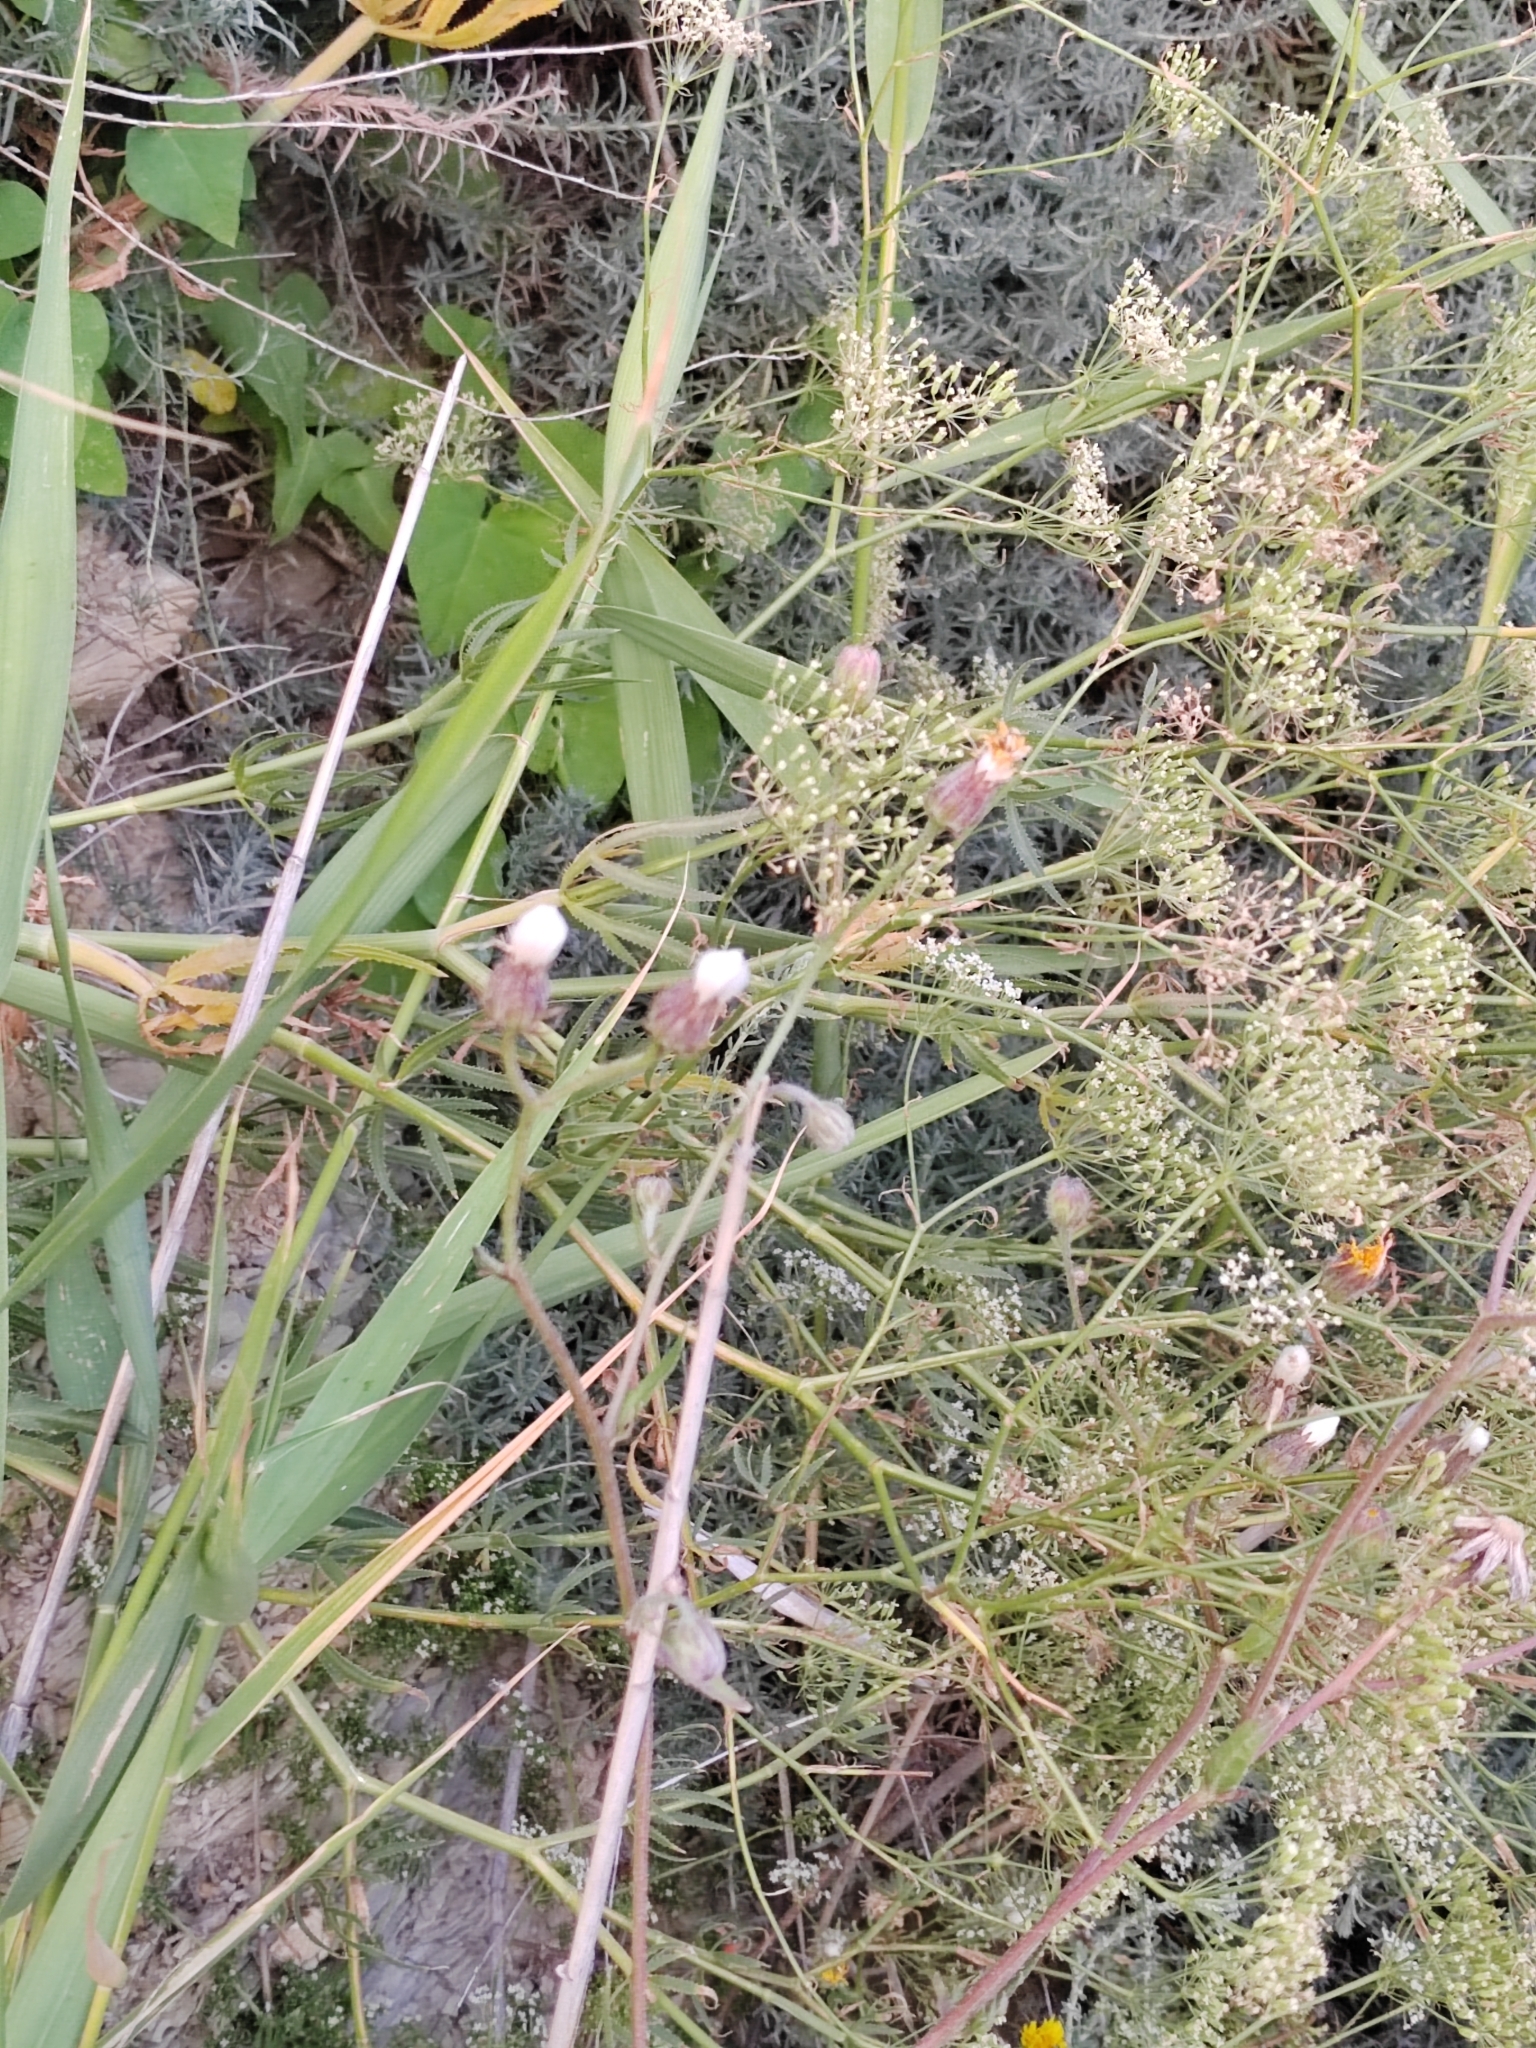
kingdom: Plantae
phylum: Tracheophyta
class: Magnoliopsida
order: Apiales
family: Apiaceae
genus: Falcaria
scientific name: Falcaria vulgaris
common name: Longleaf
